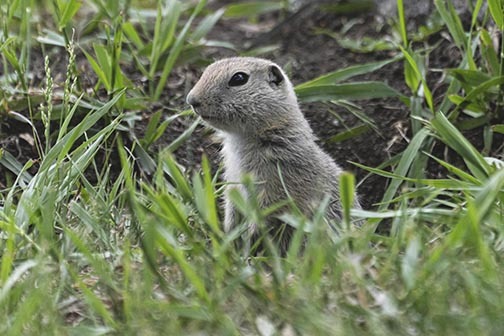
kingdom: Animalia
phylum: Chordata
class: Mammalia
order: Rodentia
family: Sciuridae
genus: Urocitellus
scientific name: Urocitellus richardsonii
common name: Richardson's ground squirrel
